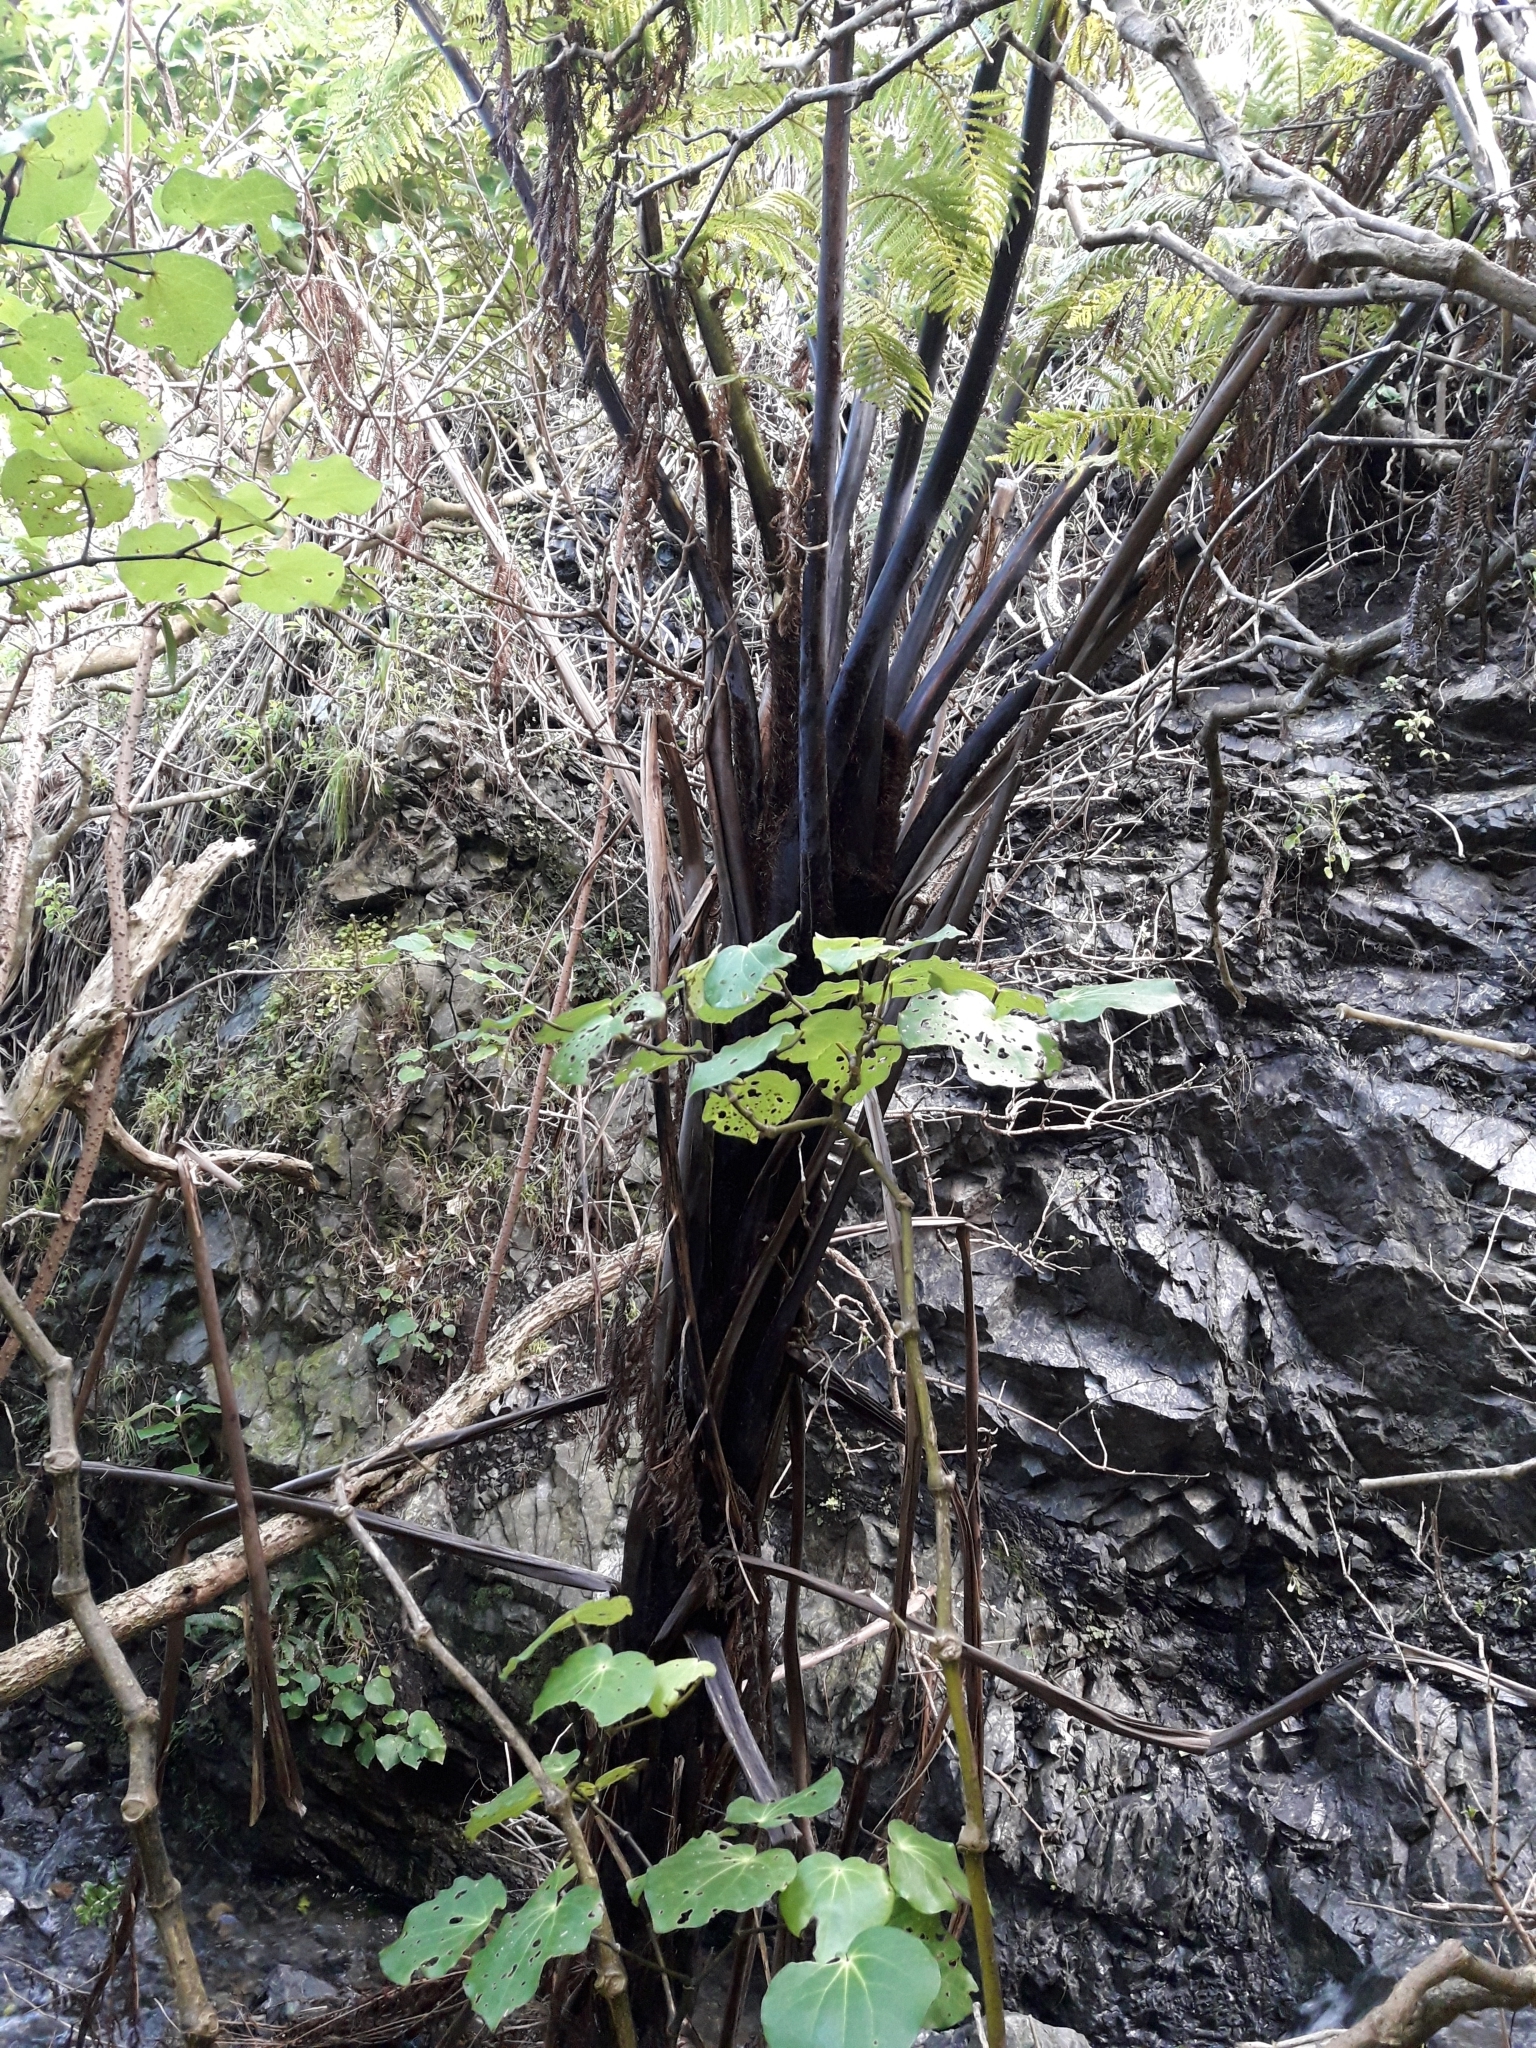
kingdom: Plantae
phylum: Tracheophyta
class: Polypodiopsida
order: Cyatheales
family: Cyatheaceae
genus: Sphaeropteris
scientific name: Sphaeropteris medullaris
